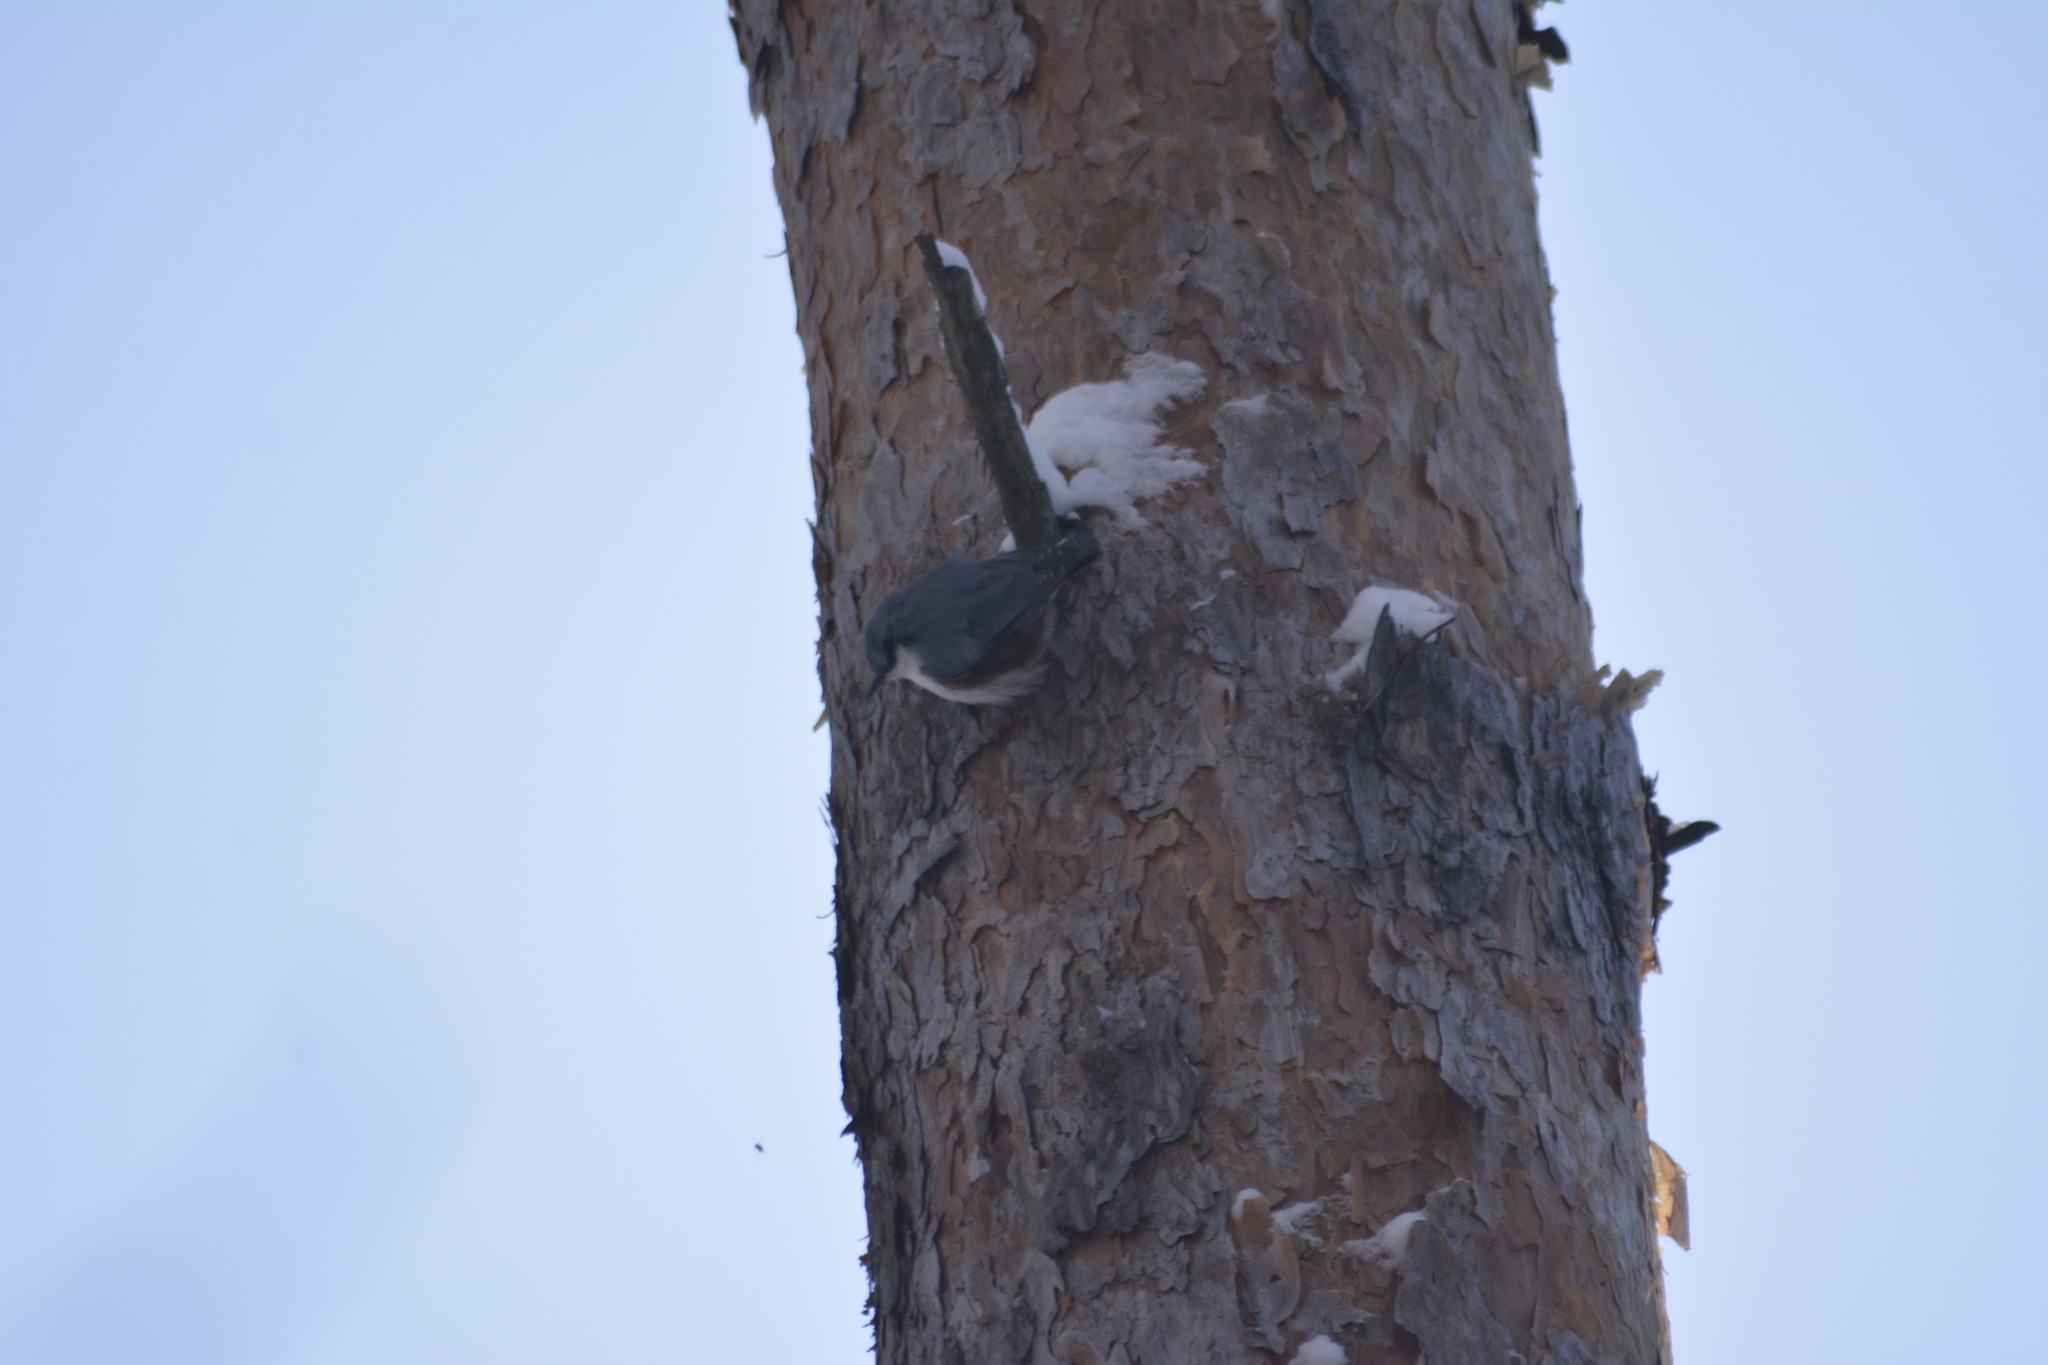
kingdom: Animalia
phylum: Chordata
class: Aves
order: Passeriformes
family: Sittidae
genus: Sitta
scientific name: Sitta europaea
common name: Eurasian nuthatch
